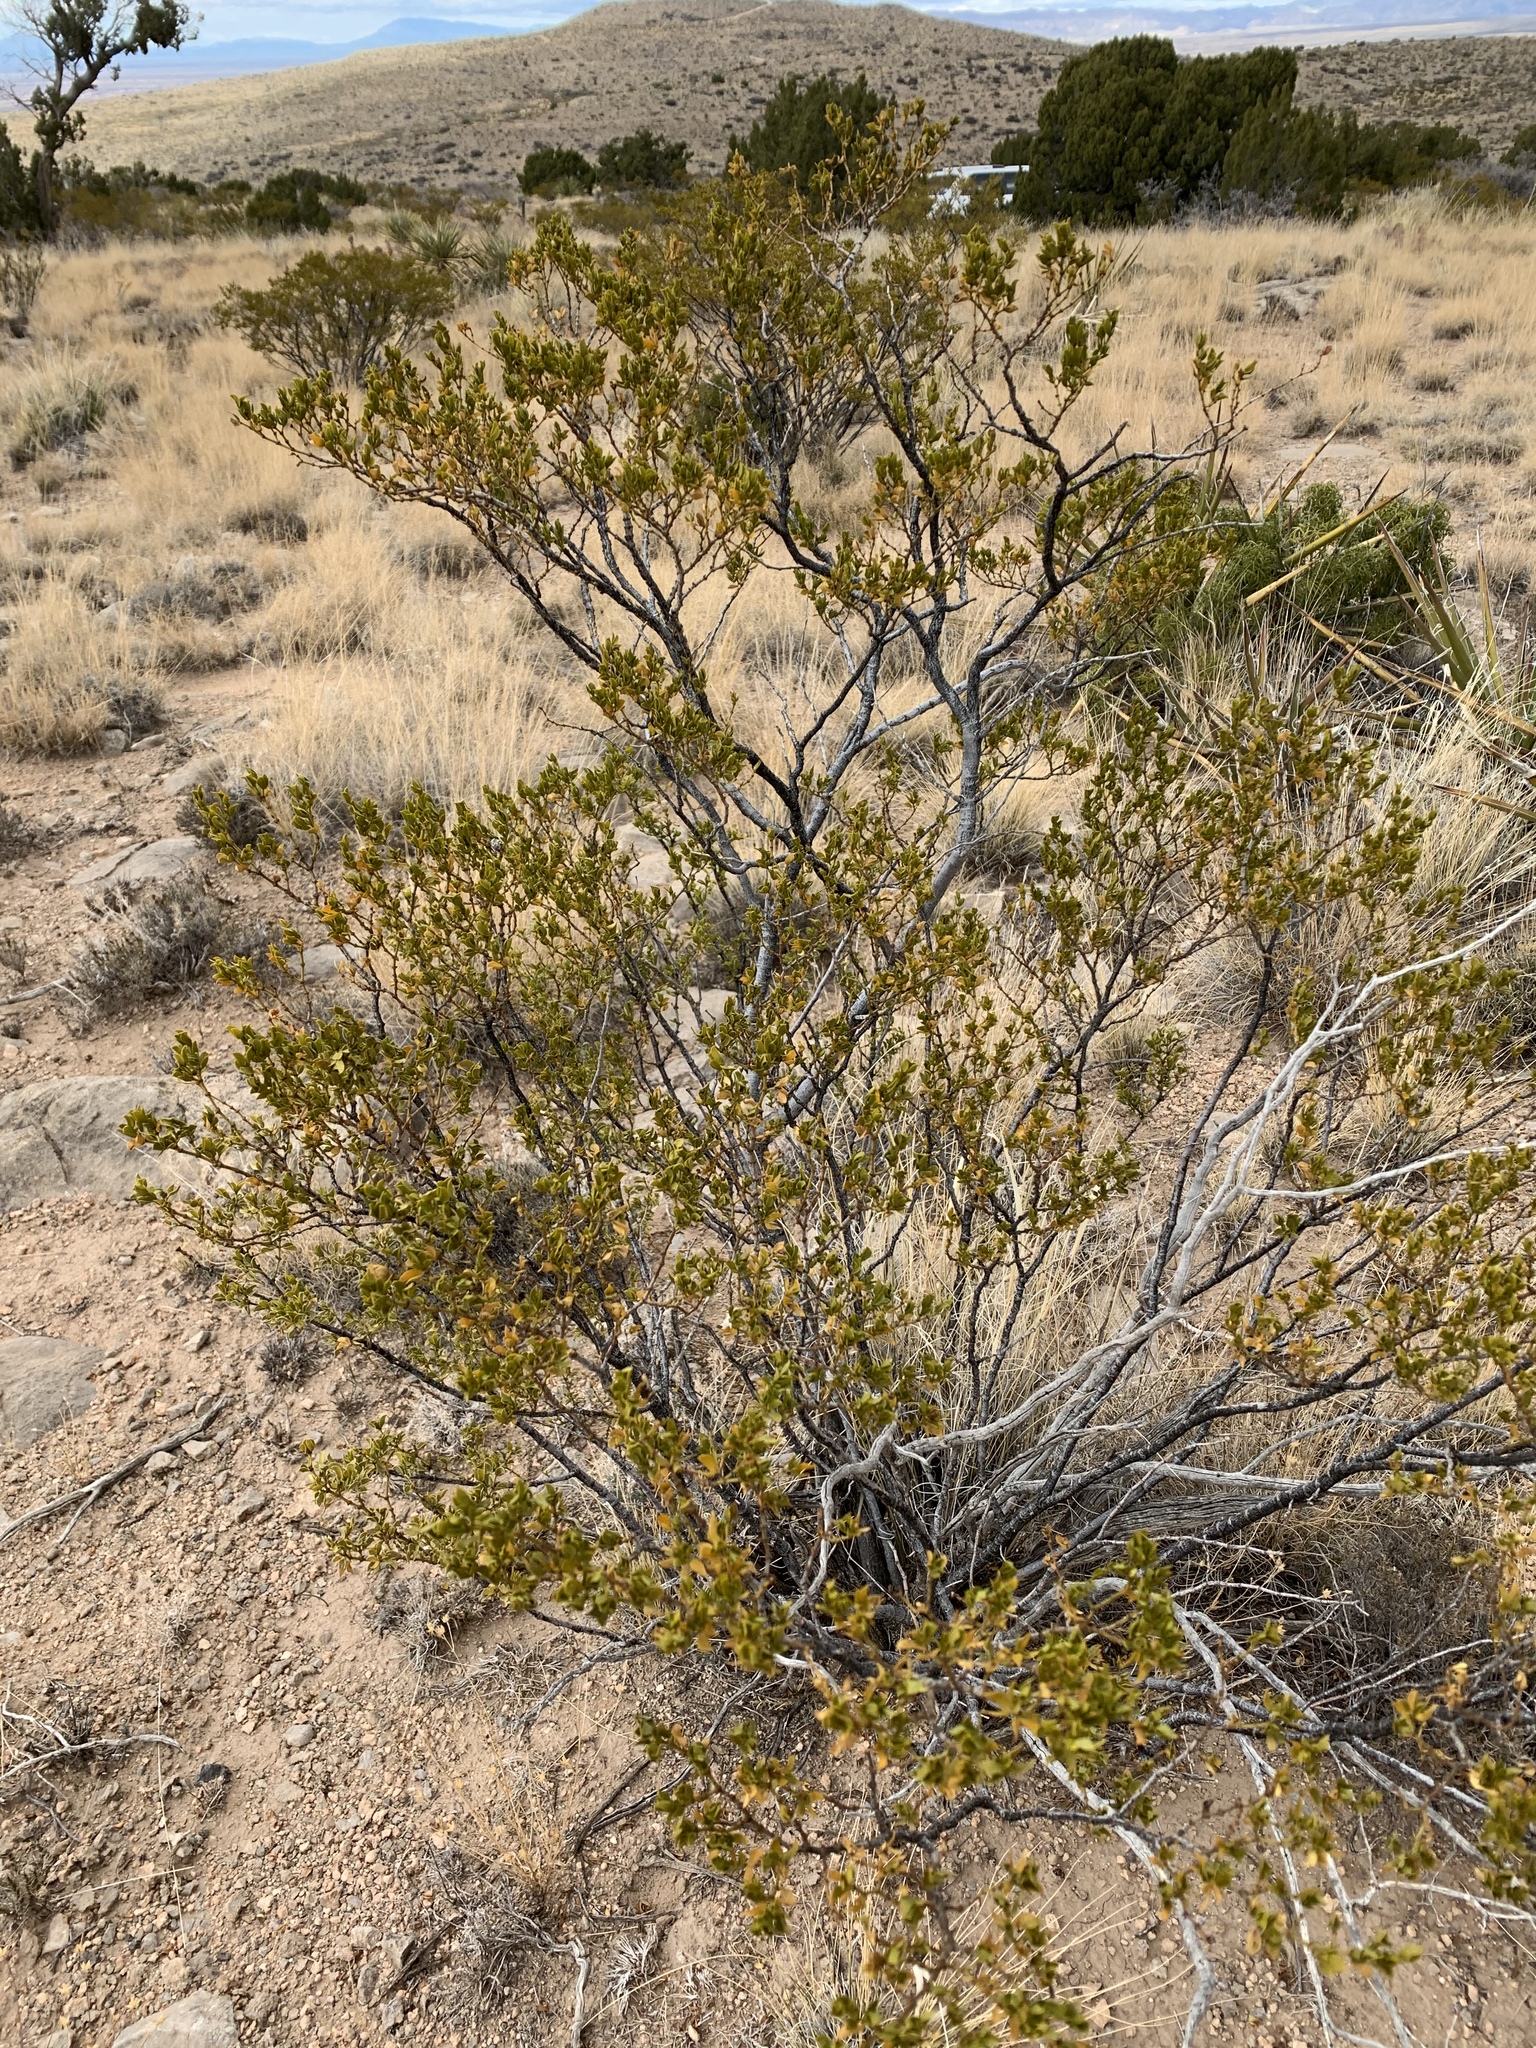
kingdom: Plantae
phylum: Tracheophyta
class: Magnoliopsida
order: Zygophyllales
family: Zygophyllaceae
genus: Larrea
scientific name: Larrea tridentata
